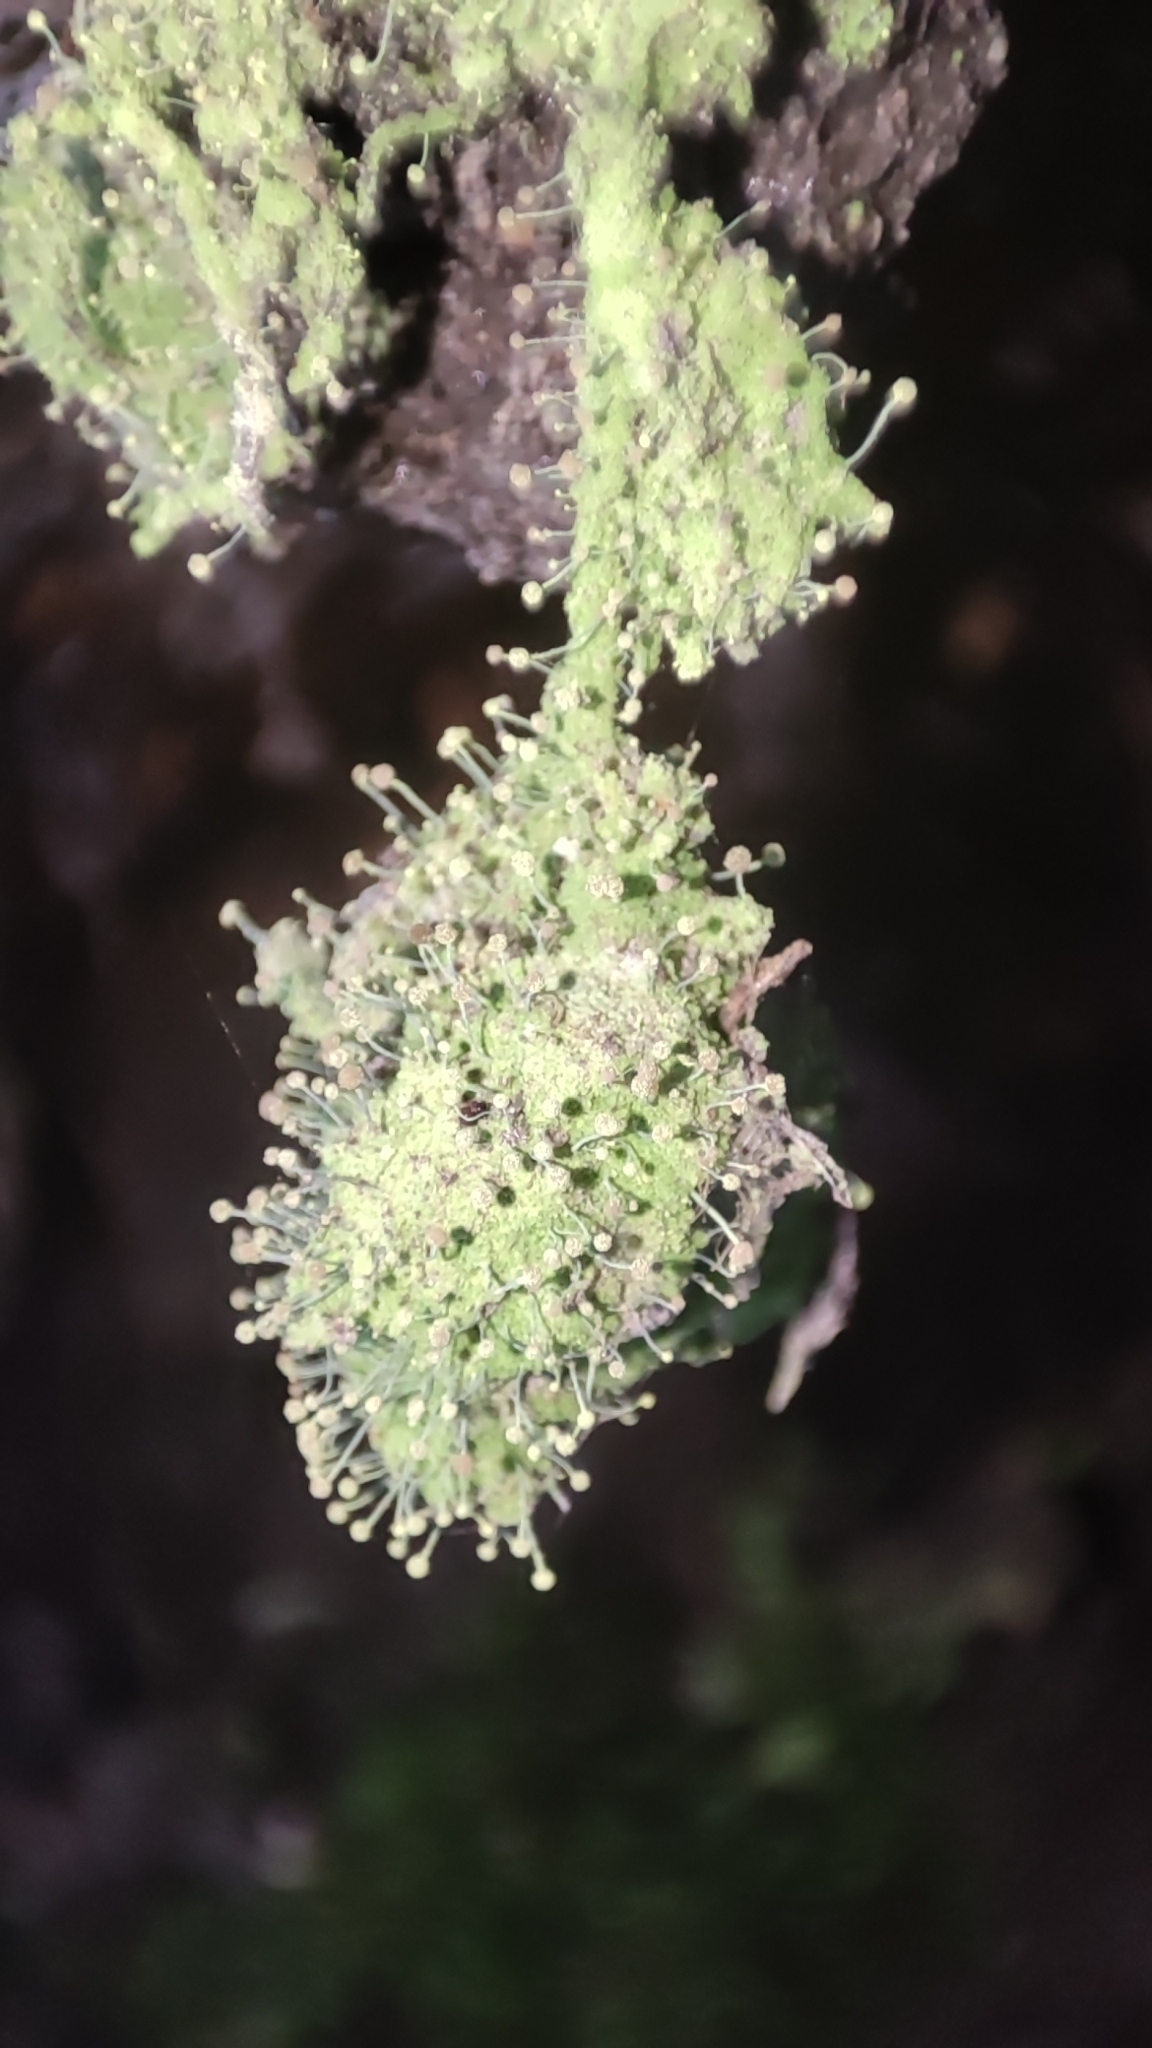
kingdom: Fungi
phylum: Ascomycota
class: Coniocybomycetes
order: Coniocybales
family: Coniocybaceae
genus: Chaenotheca
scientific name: Chaenotheca furfuracea
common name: Sulphur stubble lichen
